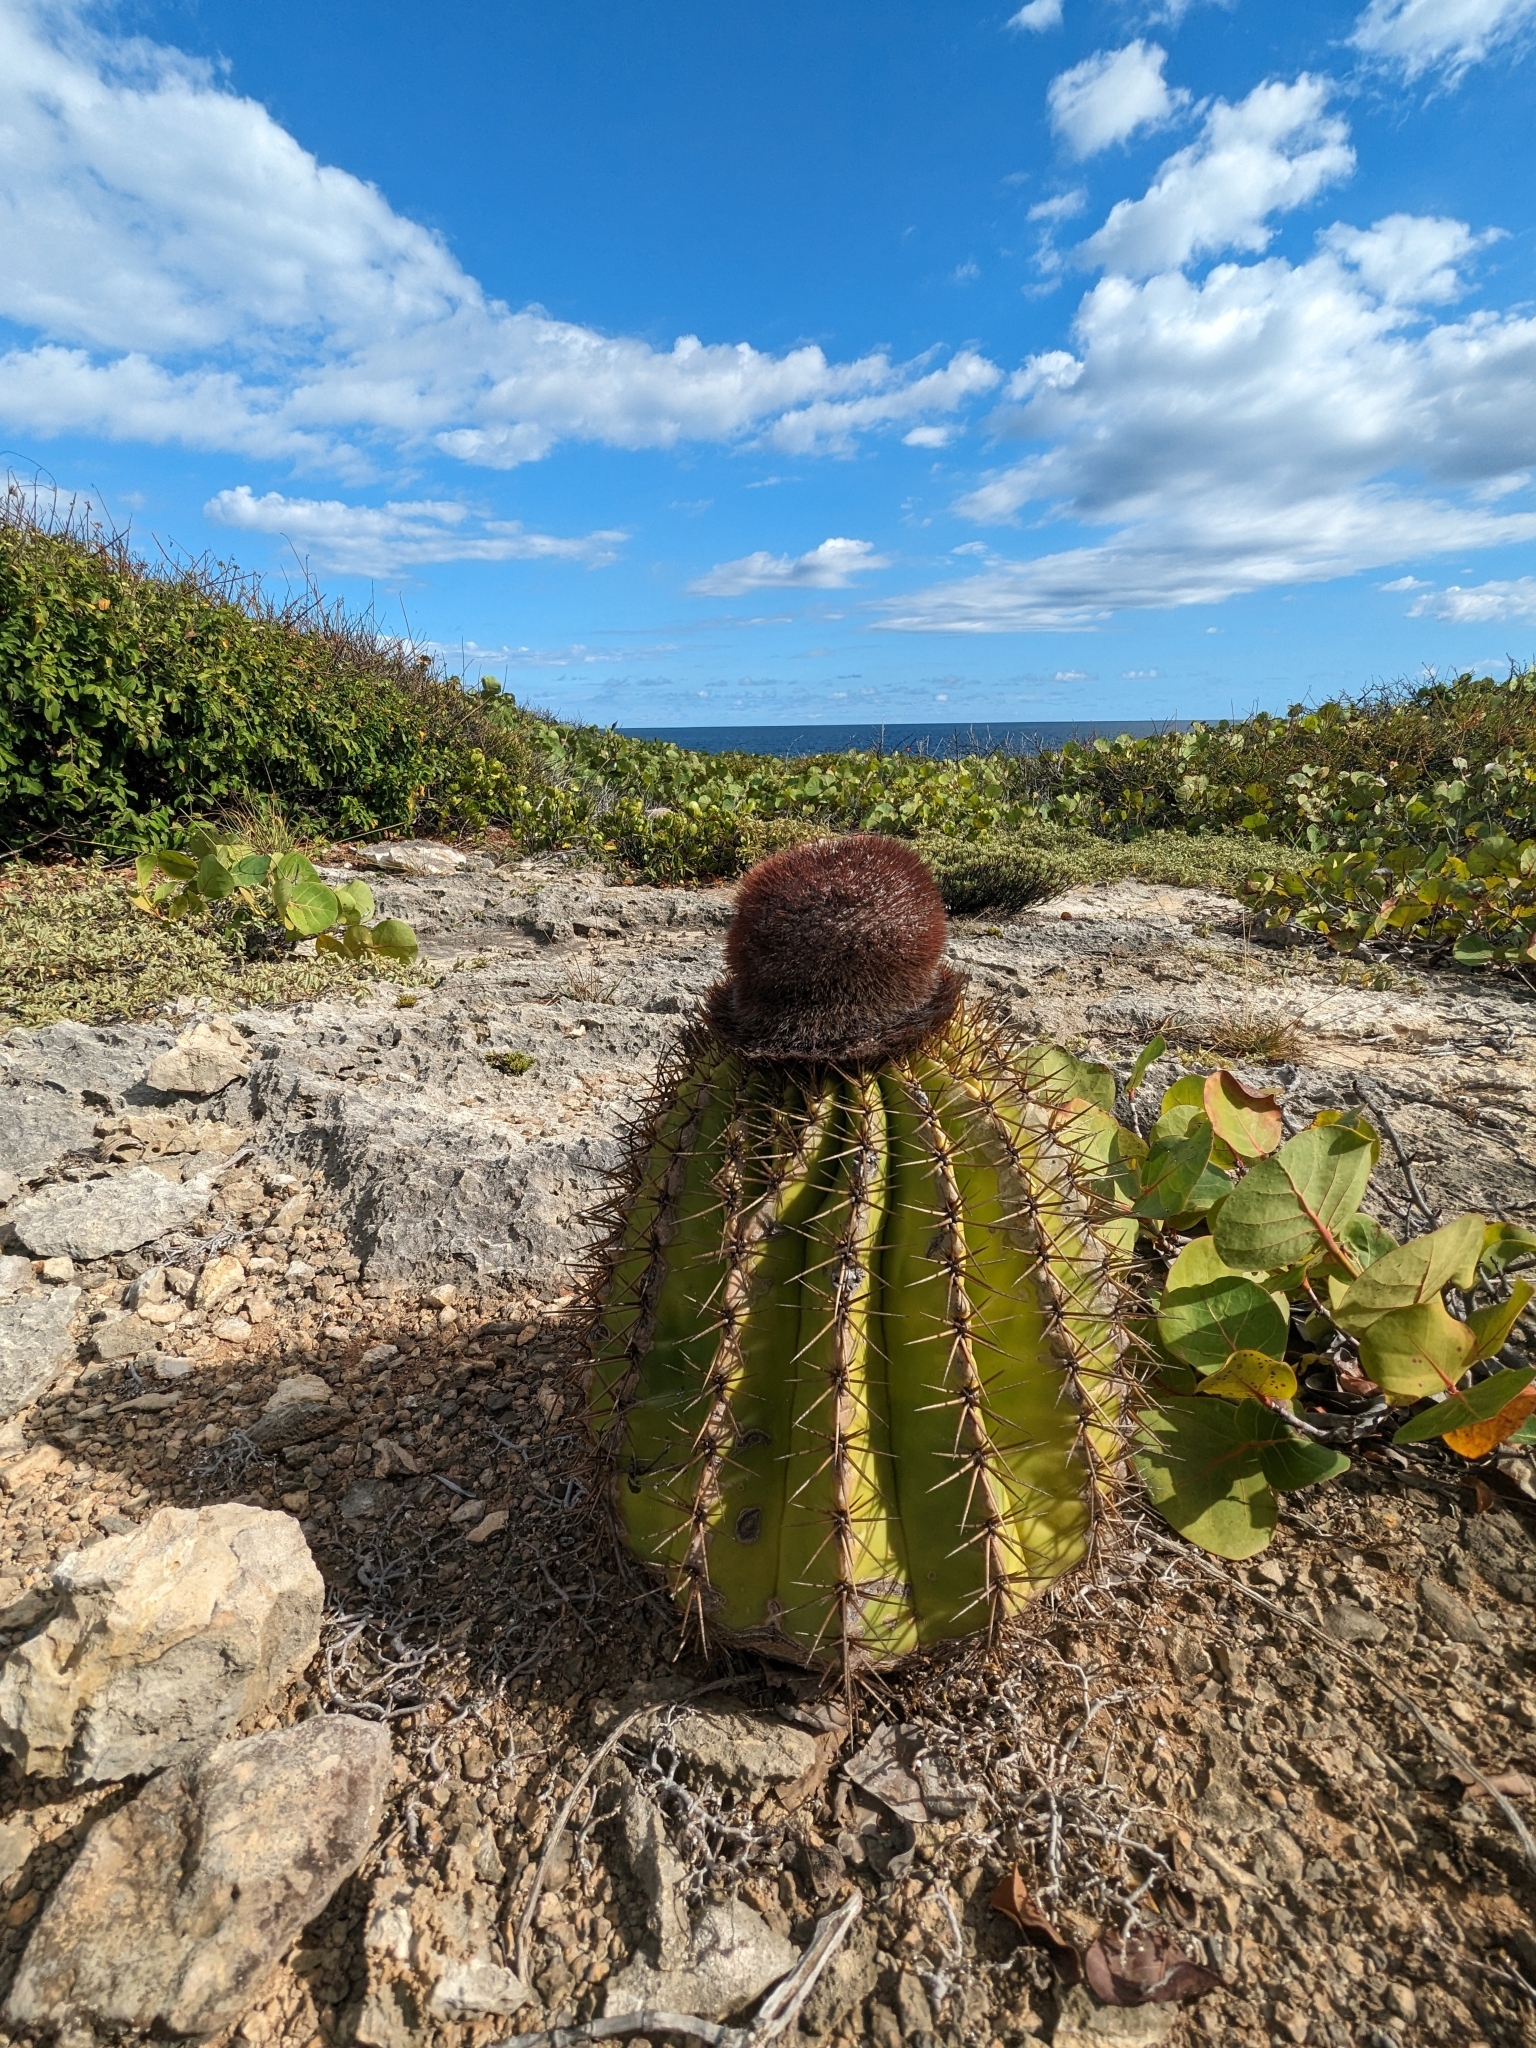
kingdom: Plantae
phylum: Tracheophyta
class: Magnoliopsida
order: Caryophyllales
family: Cactaceae
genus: Melocactus
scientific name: Melocactus intortus
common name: Barrel cactus
